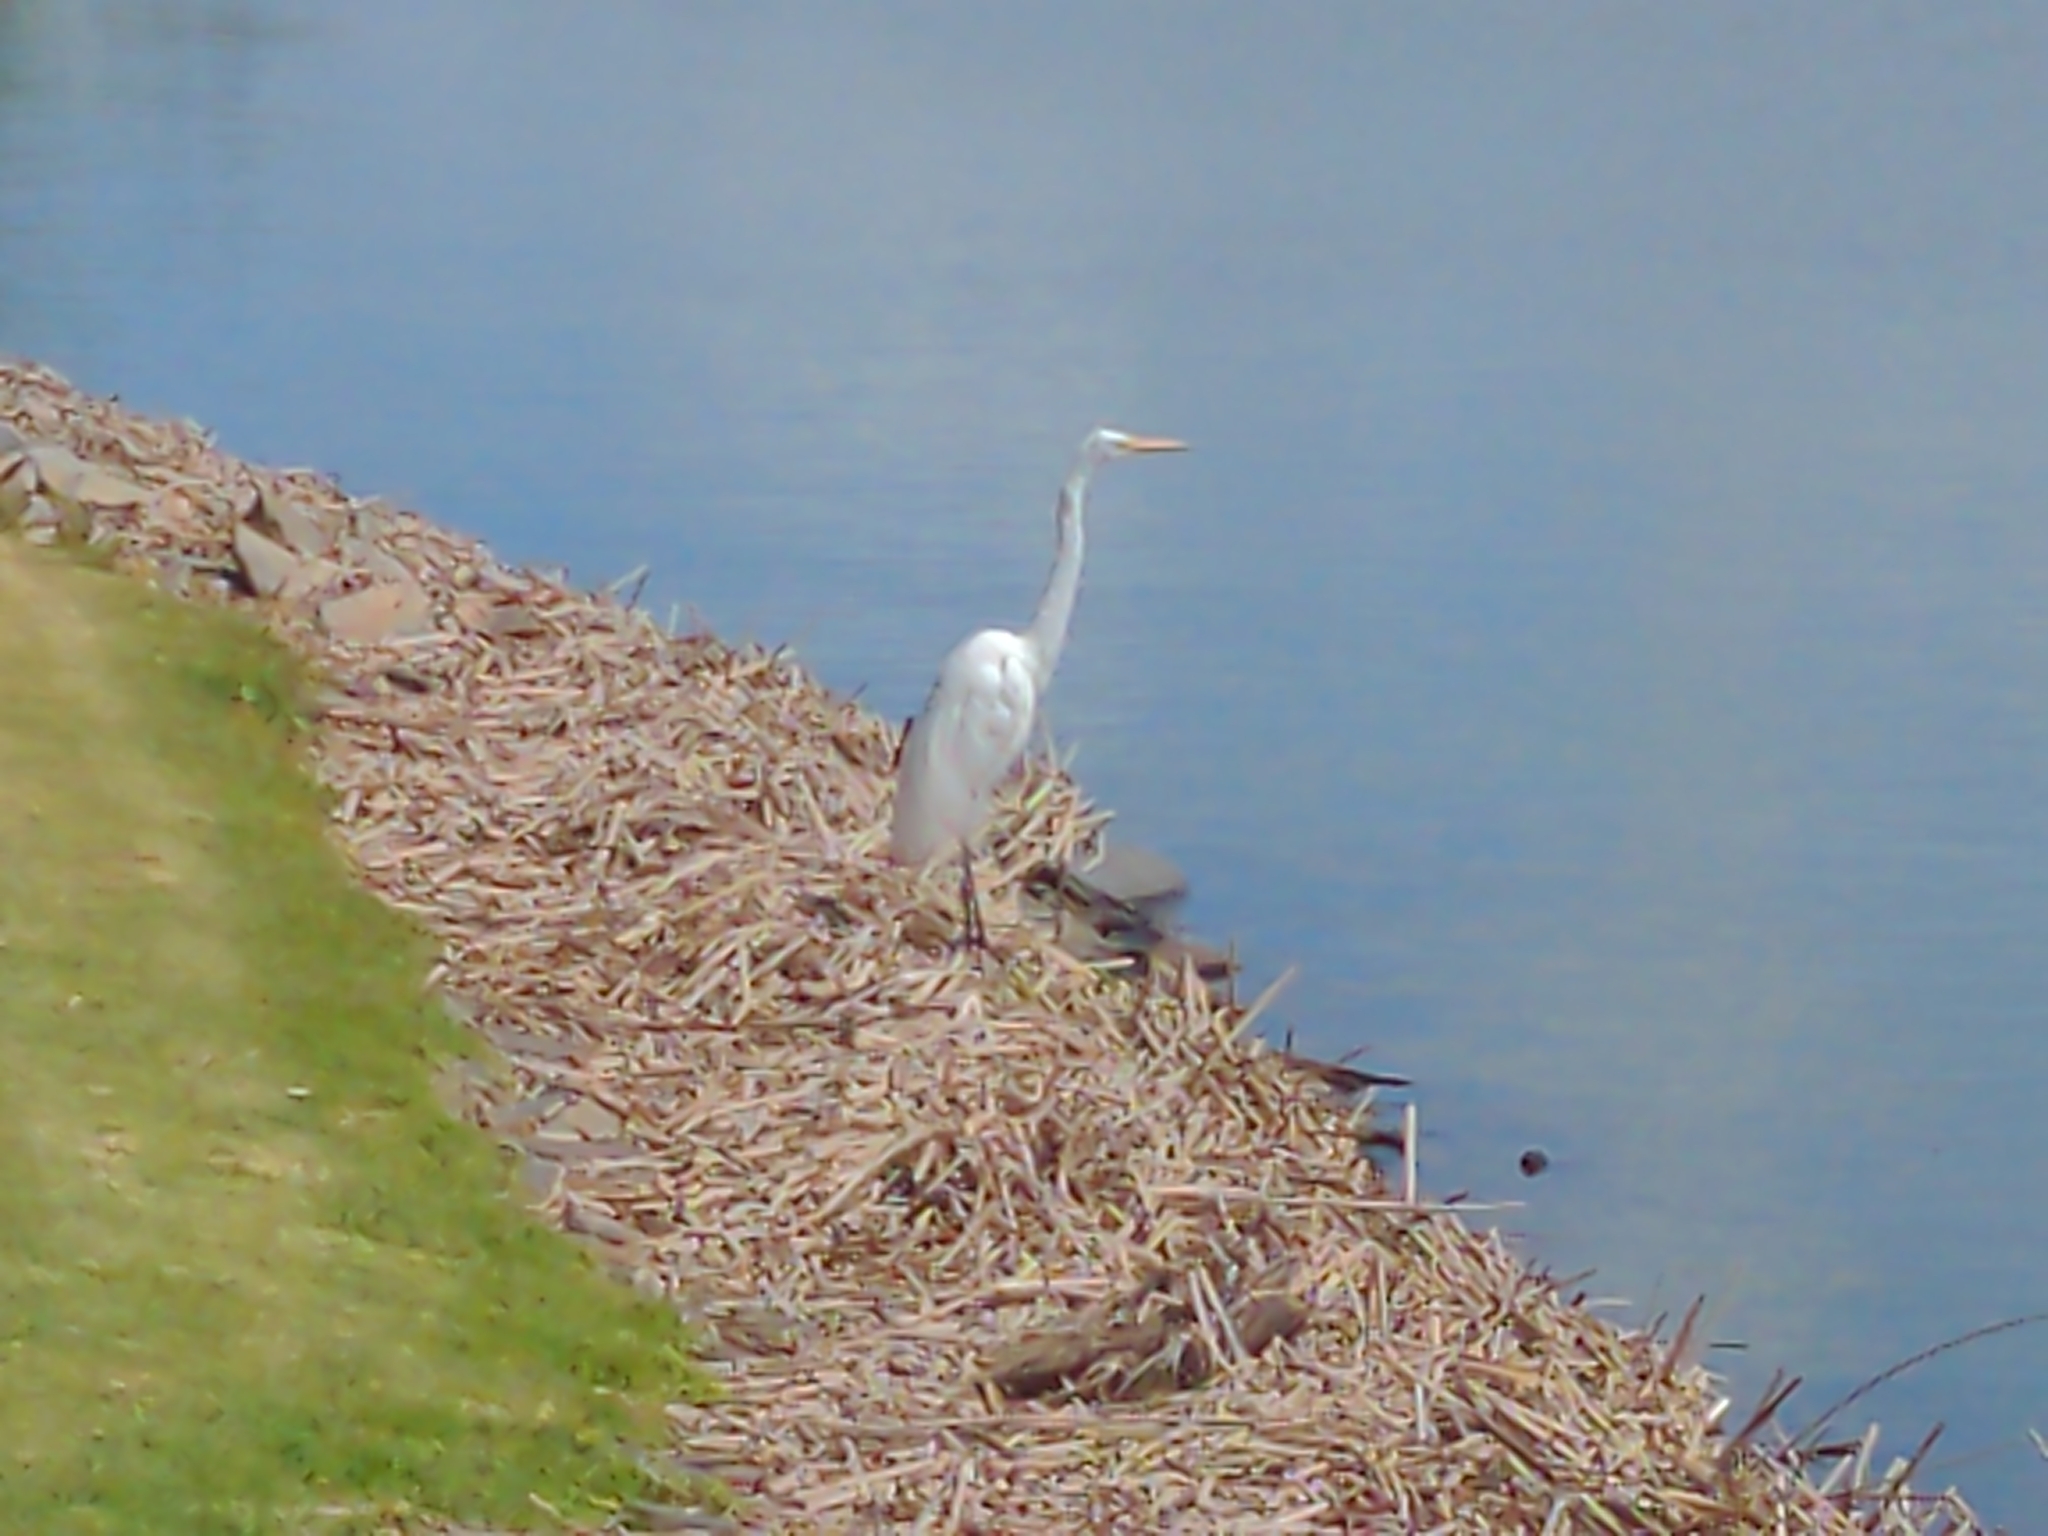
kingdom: Animalia
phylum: Chordata
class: Aves
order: Pelecaniformes
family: Ardeidae
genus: Ardea
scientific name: Ardea alba
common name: Great egret
